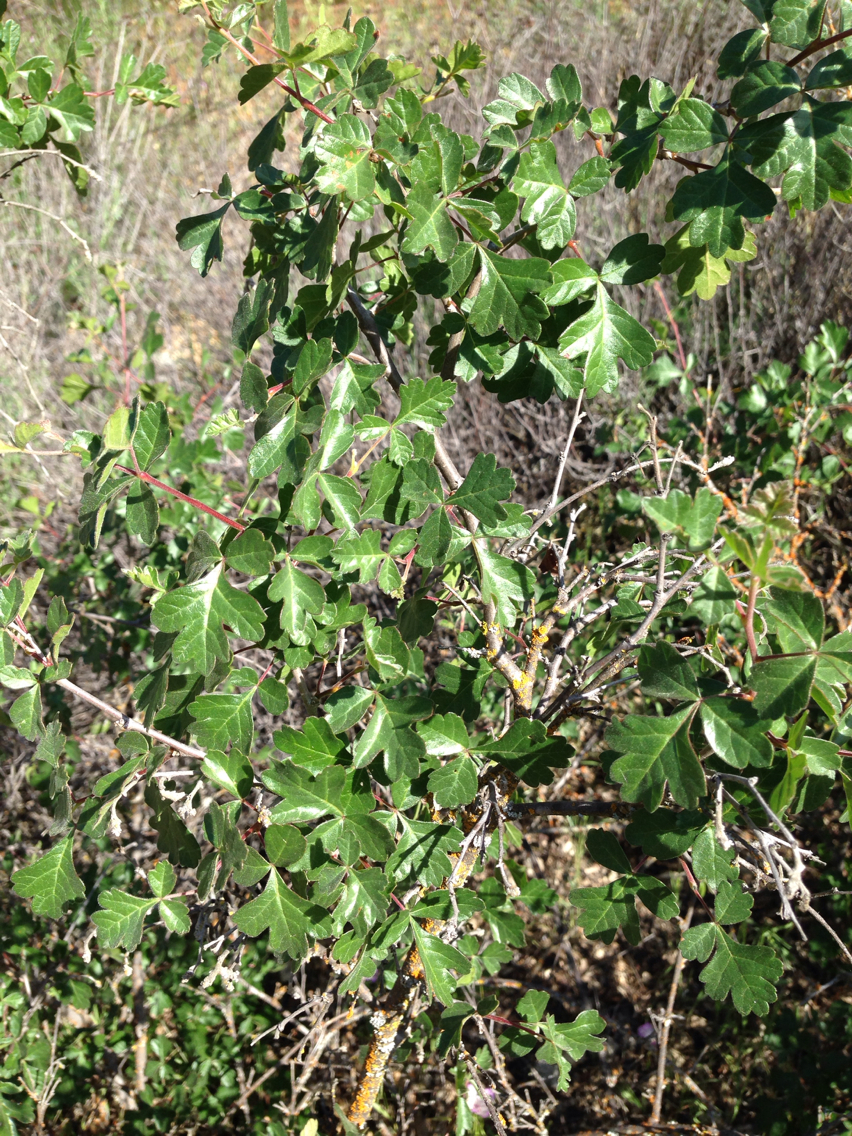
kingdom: Plantae
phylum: Tracheophyta
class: Magnoliopsida
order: Sapindales
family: Anacardiaceae
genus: Rhus
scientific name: Rhus aromatica
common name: Aromatic sumac
